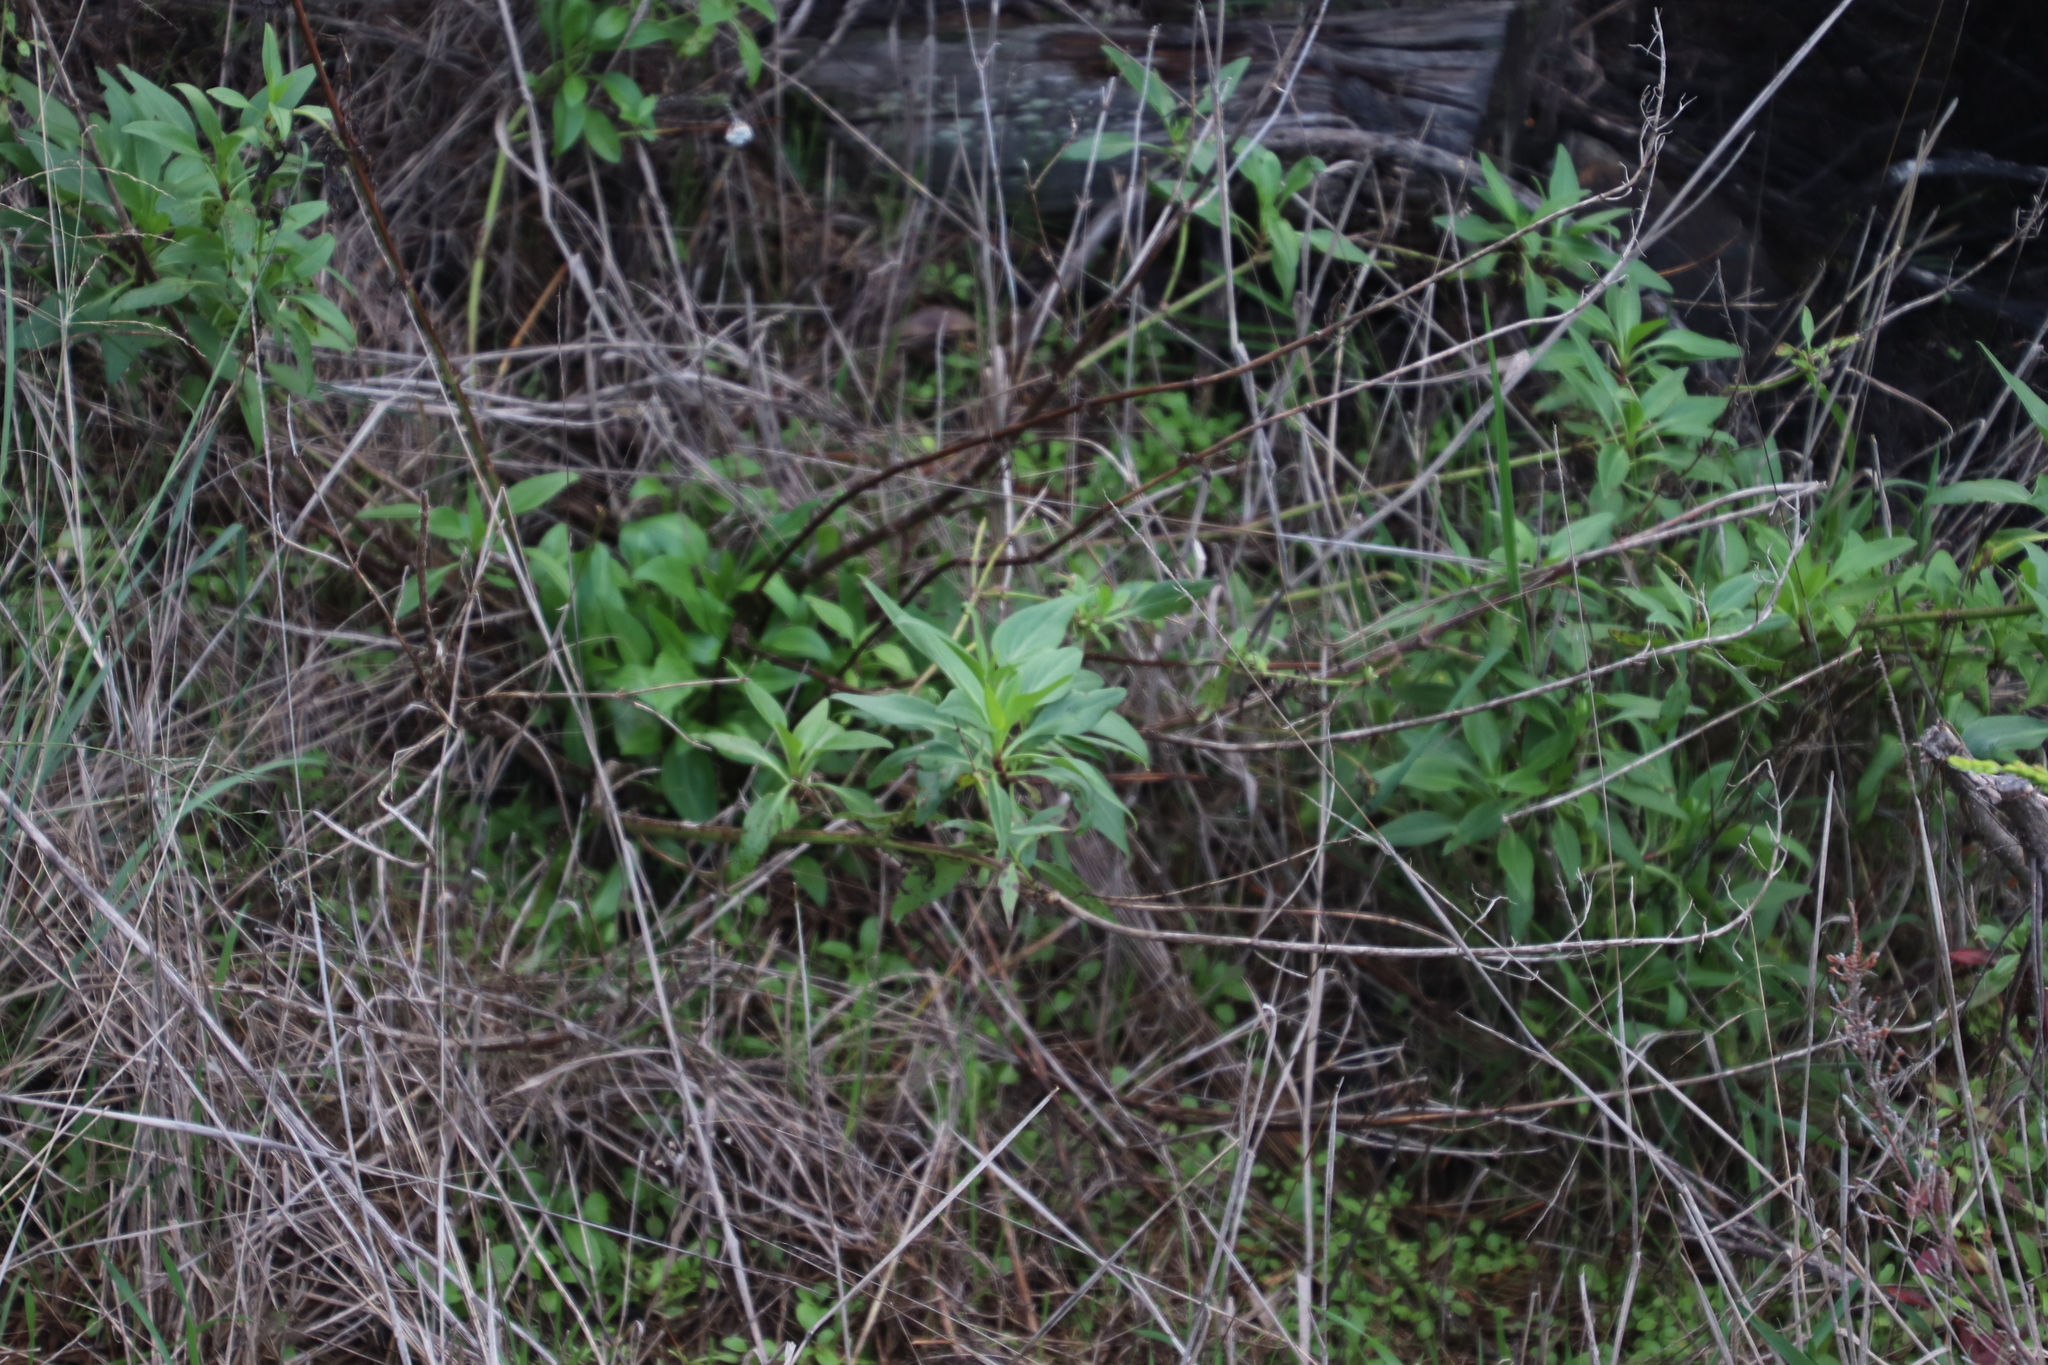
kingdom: Plantae
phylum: Tracheophyta
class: Magnoliopsida
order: Dipsacales
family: Caprifoliaceae
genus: Centranthus
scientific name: Centranthus ruber
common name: Red valerian
